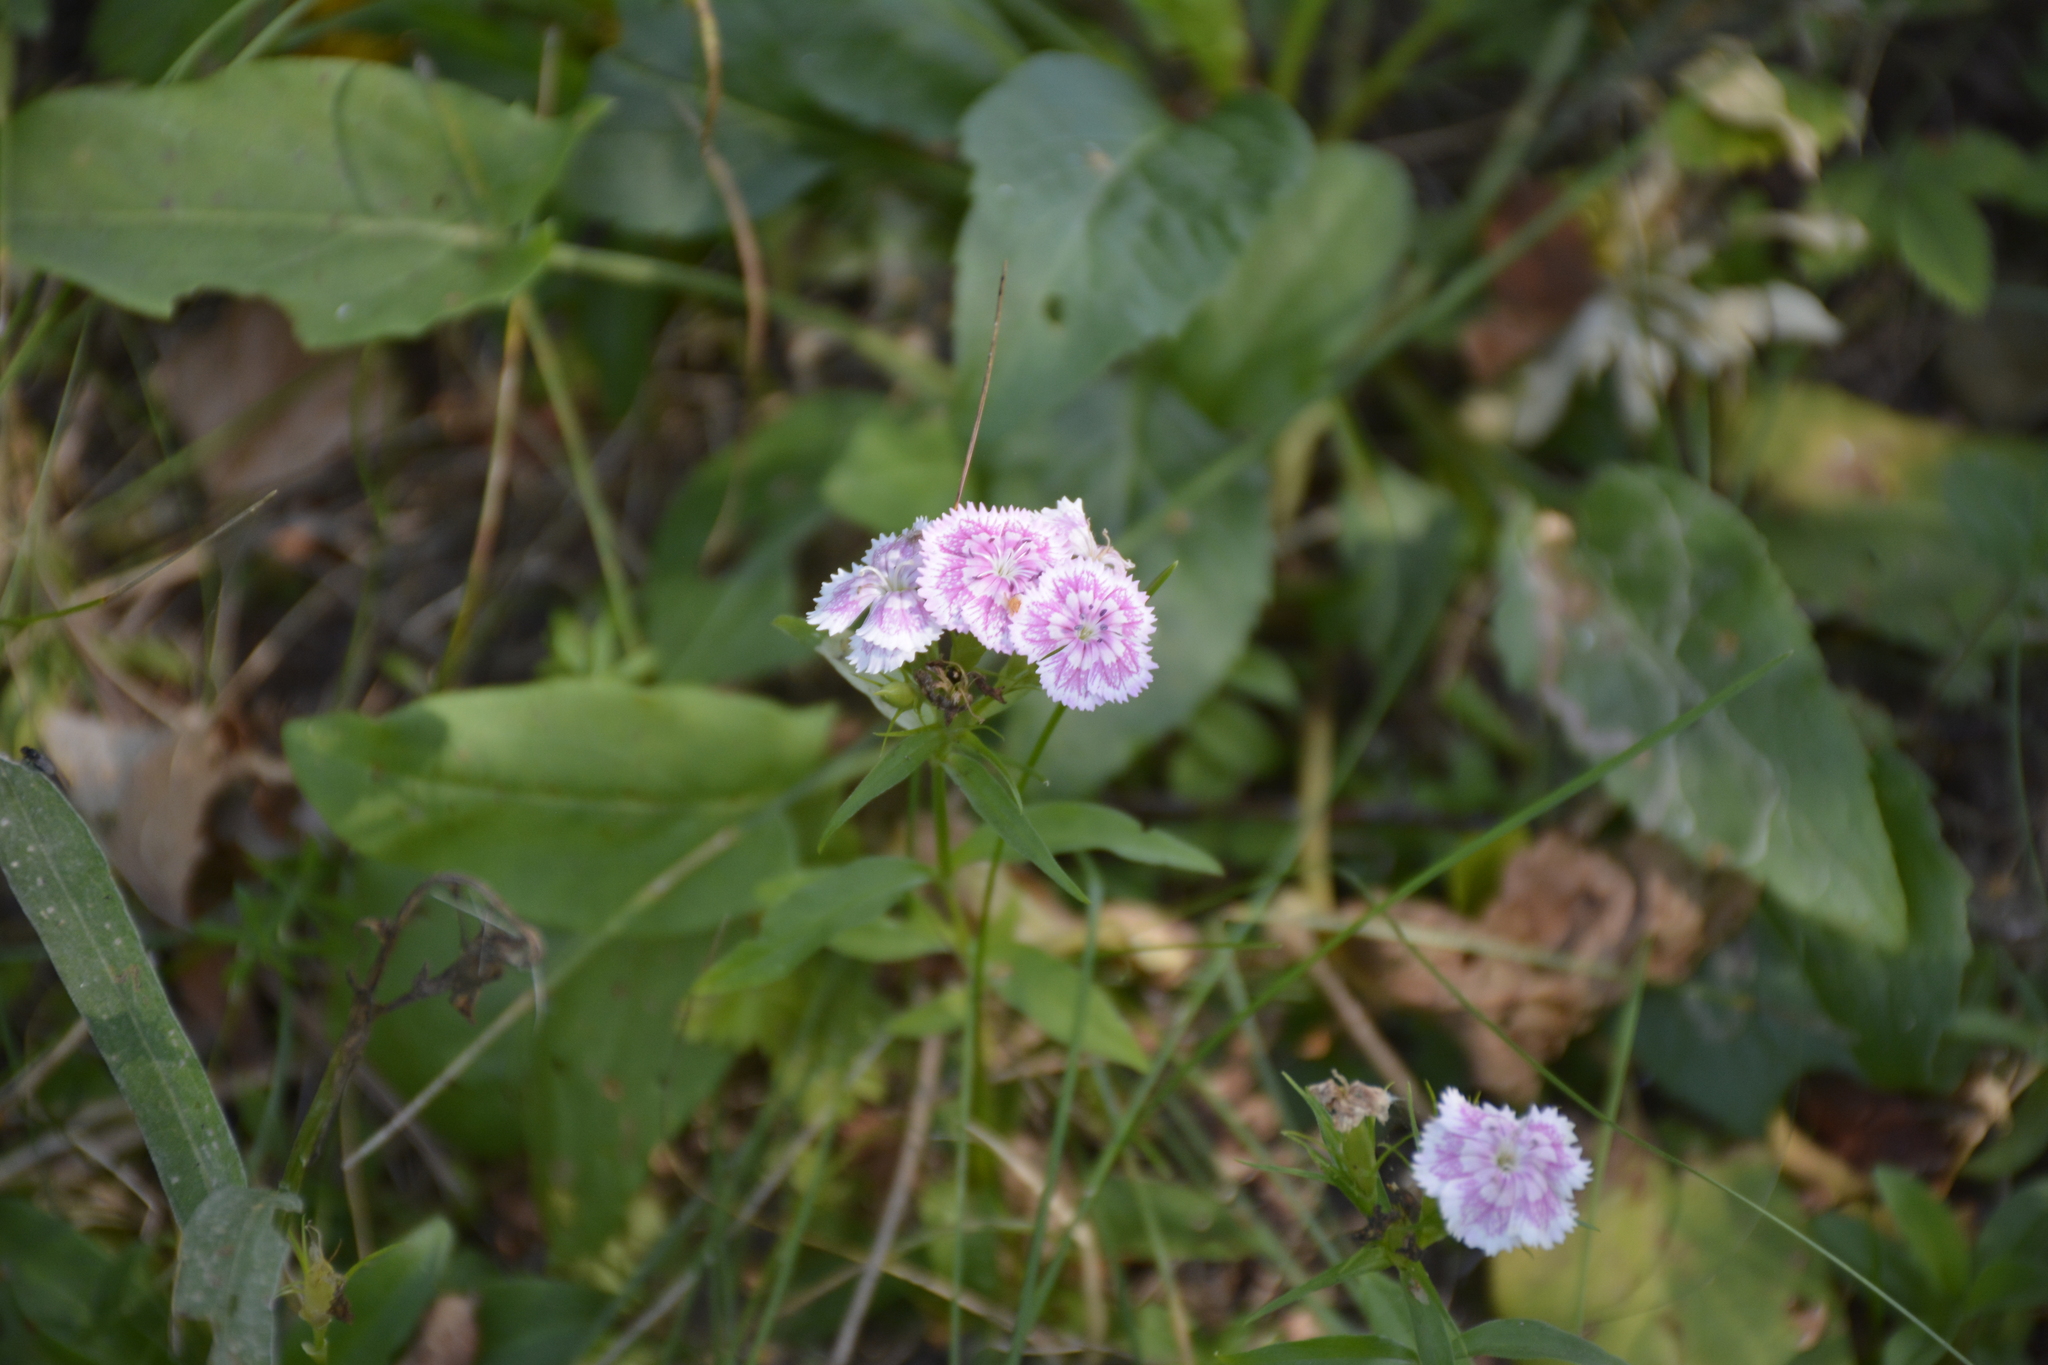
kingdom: Plantae
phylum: Tracheophyta
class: Magnoliopsida
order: Caryophyllales
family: Caryophyllaceae
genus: Dianthus
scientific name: Dianthus barbatus
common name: Sweet-william
